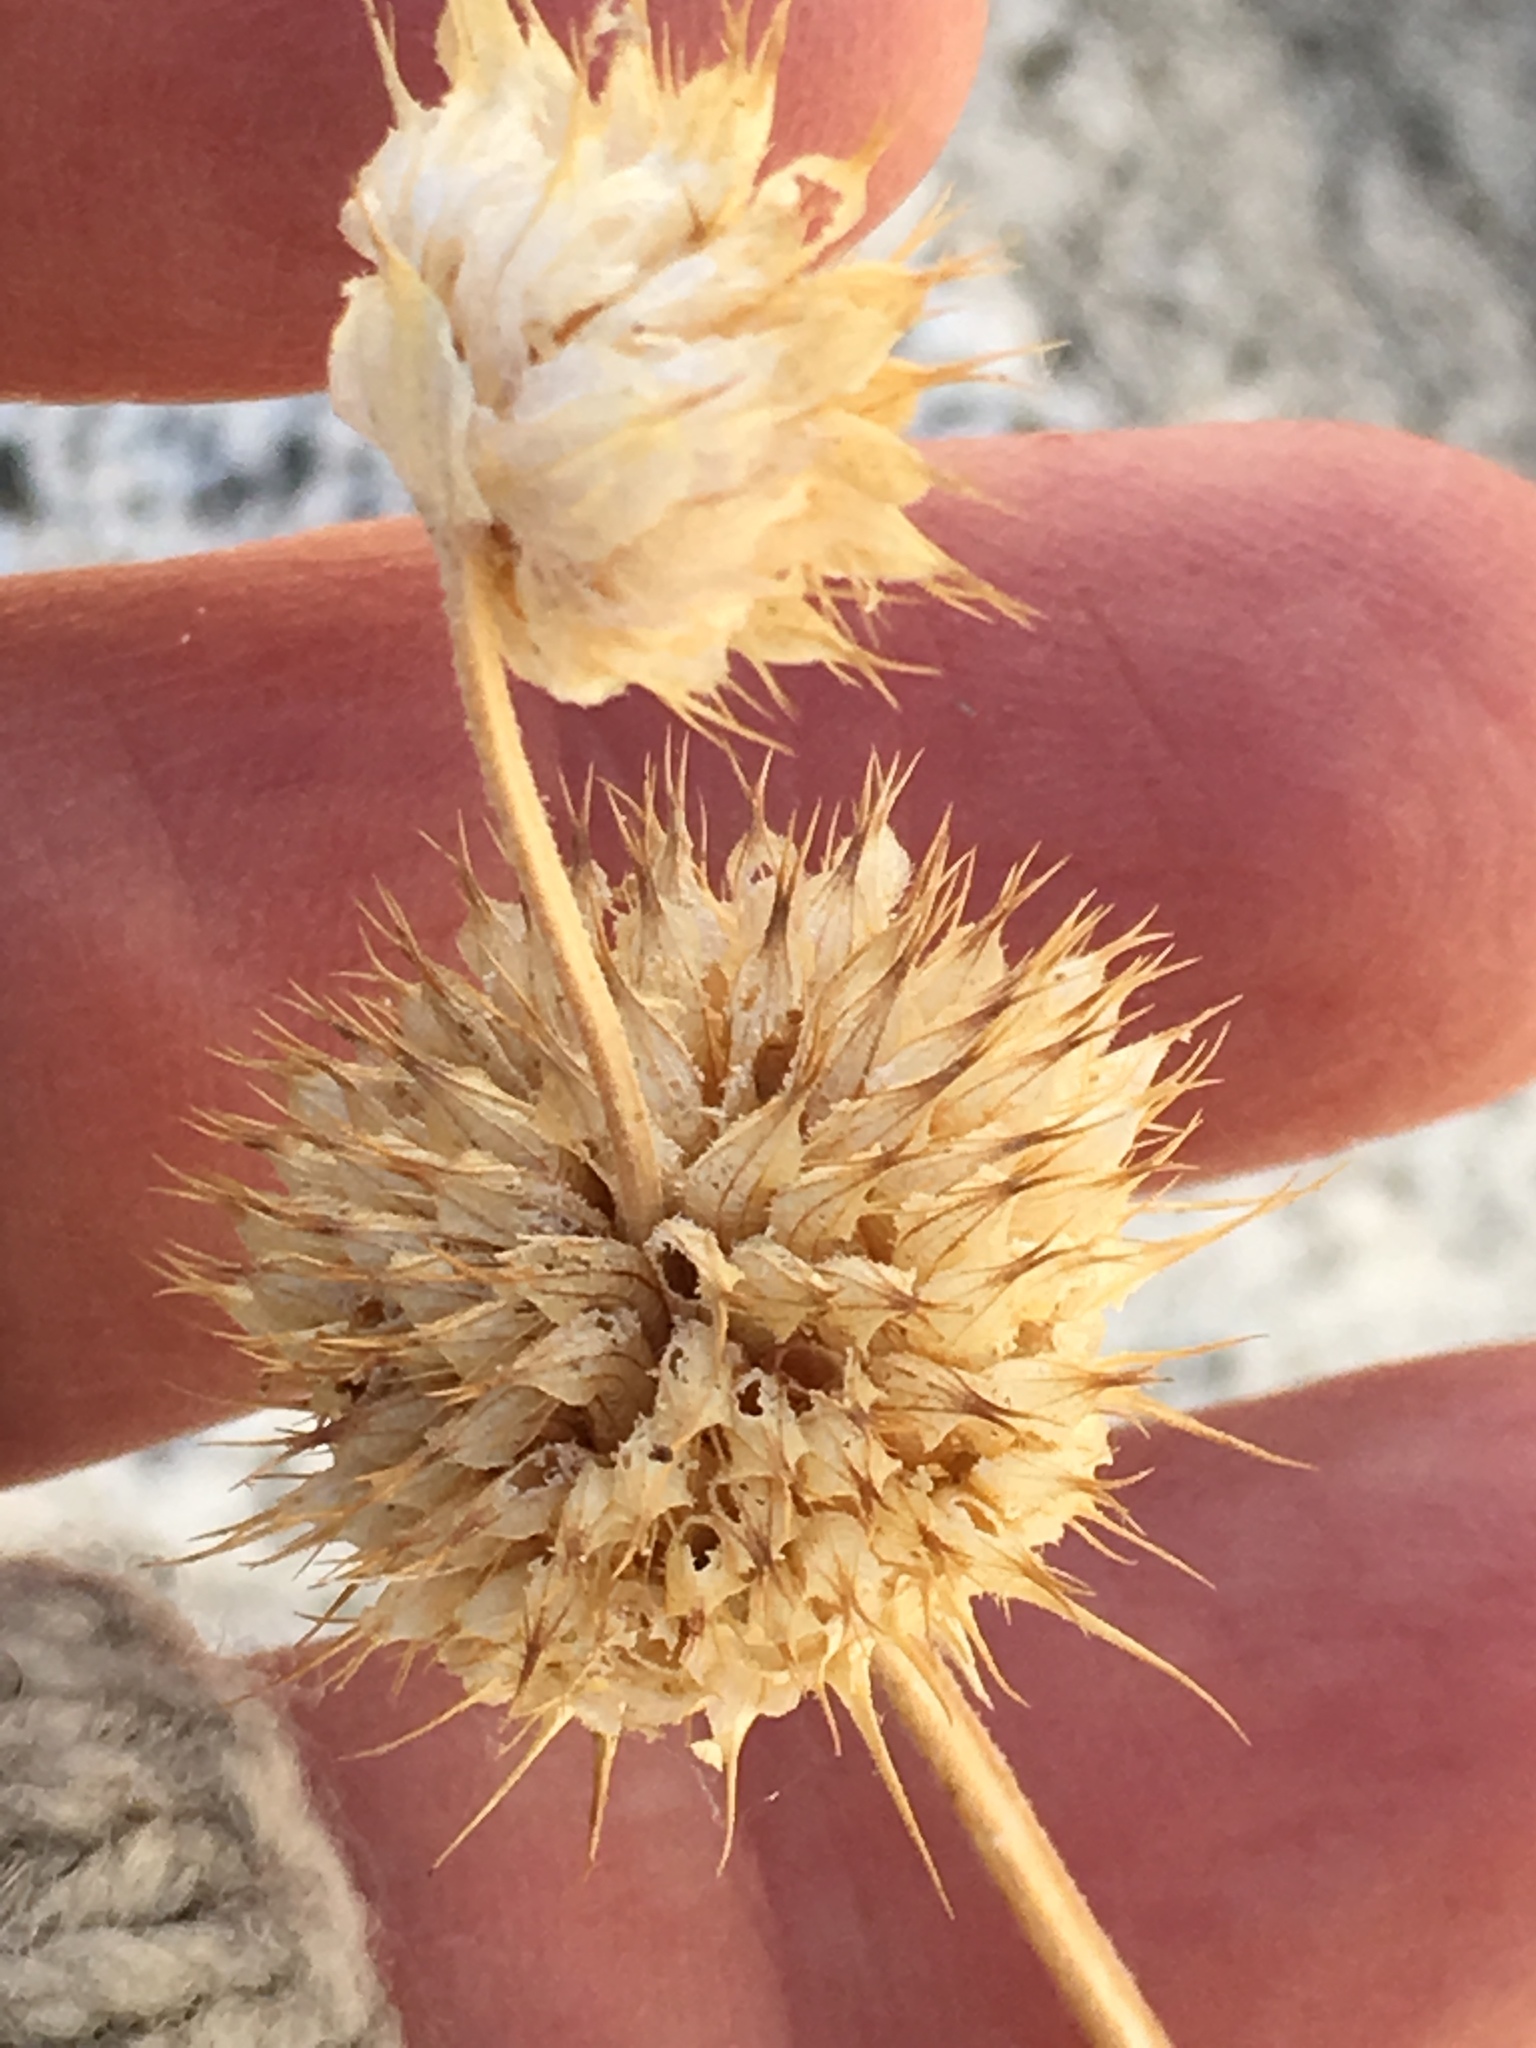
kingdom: Plantae
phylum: Tracheophyta
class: Magnoliopsida
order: Lamiales
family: Lamiaceae
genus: Salvia
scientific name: Salvia columbariae
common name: Chia
